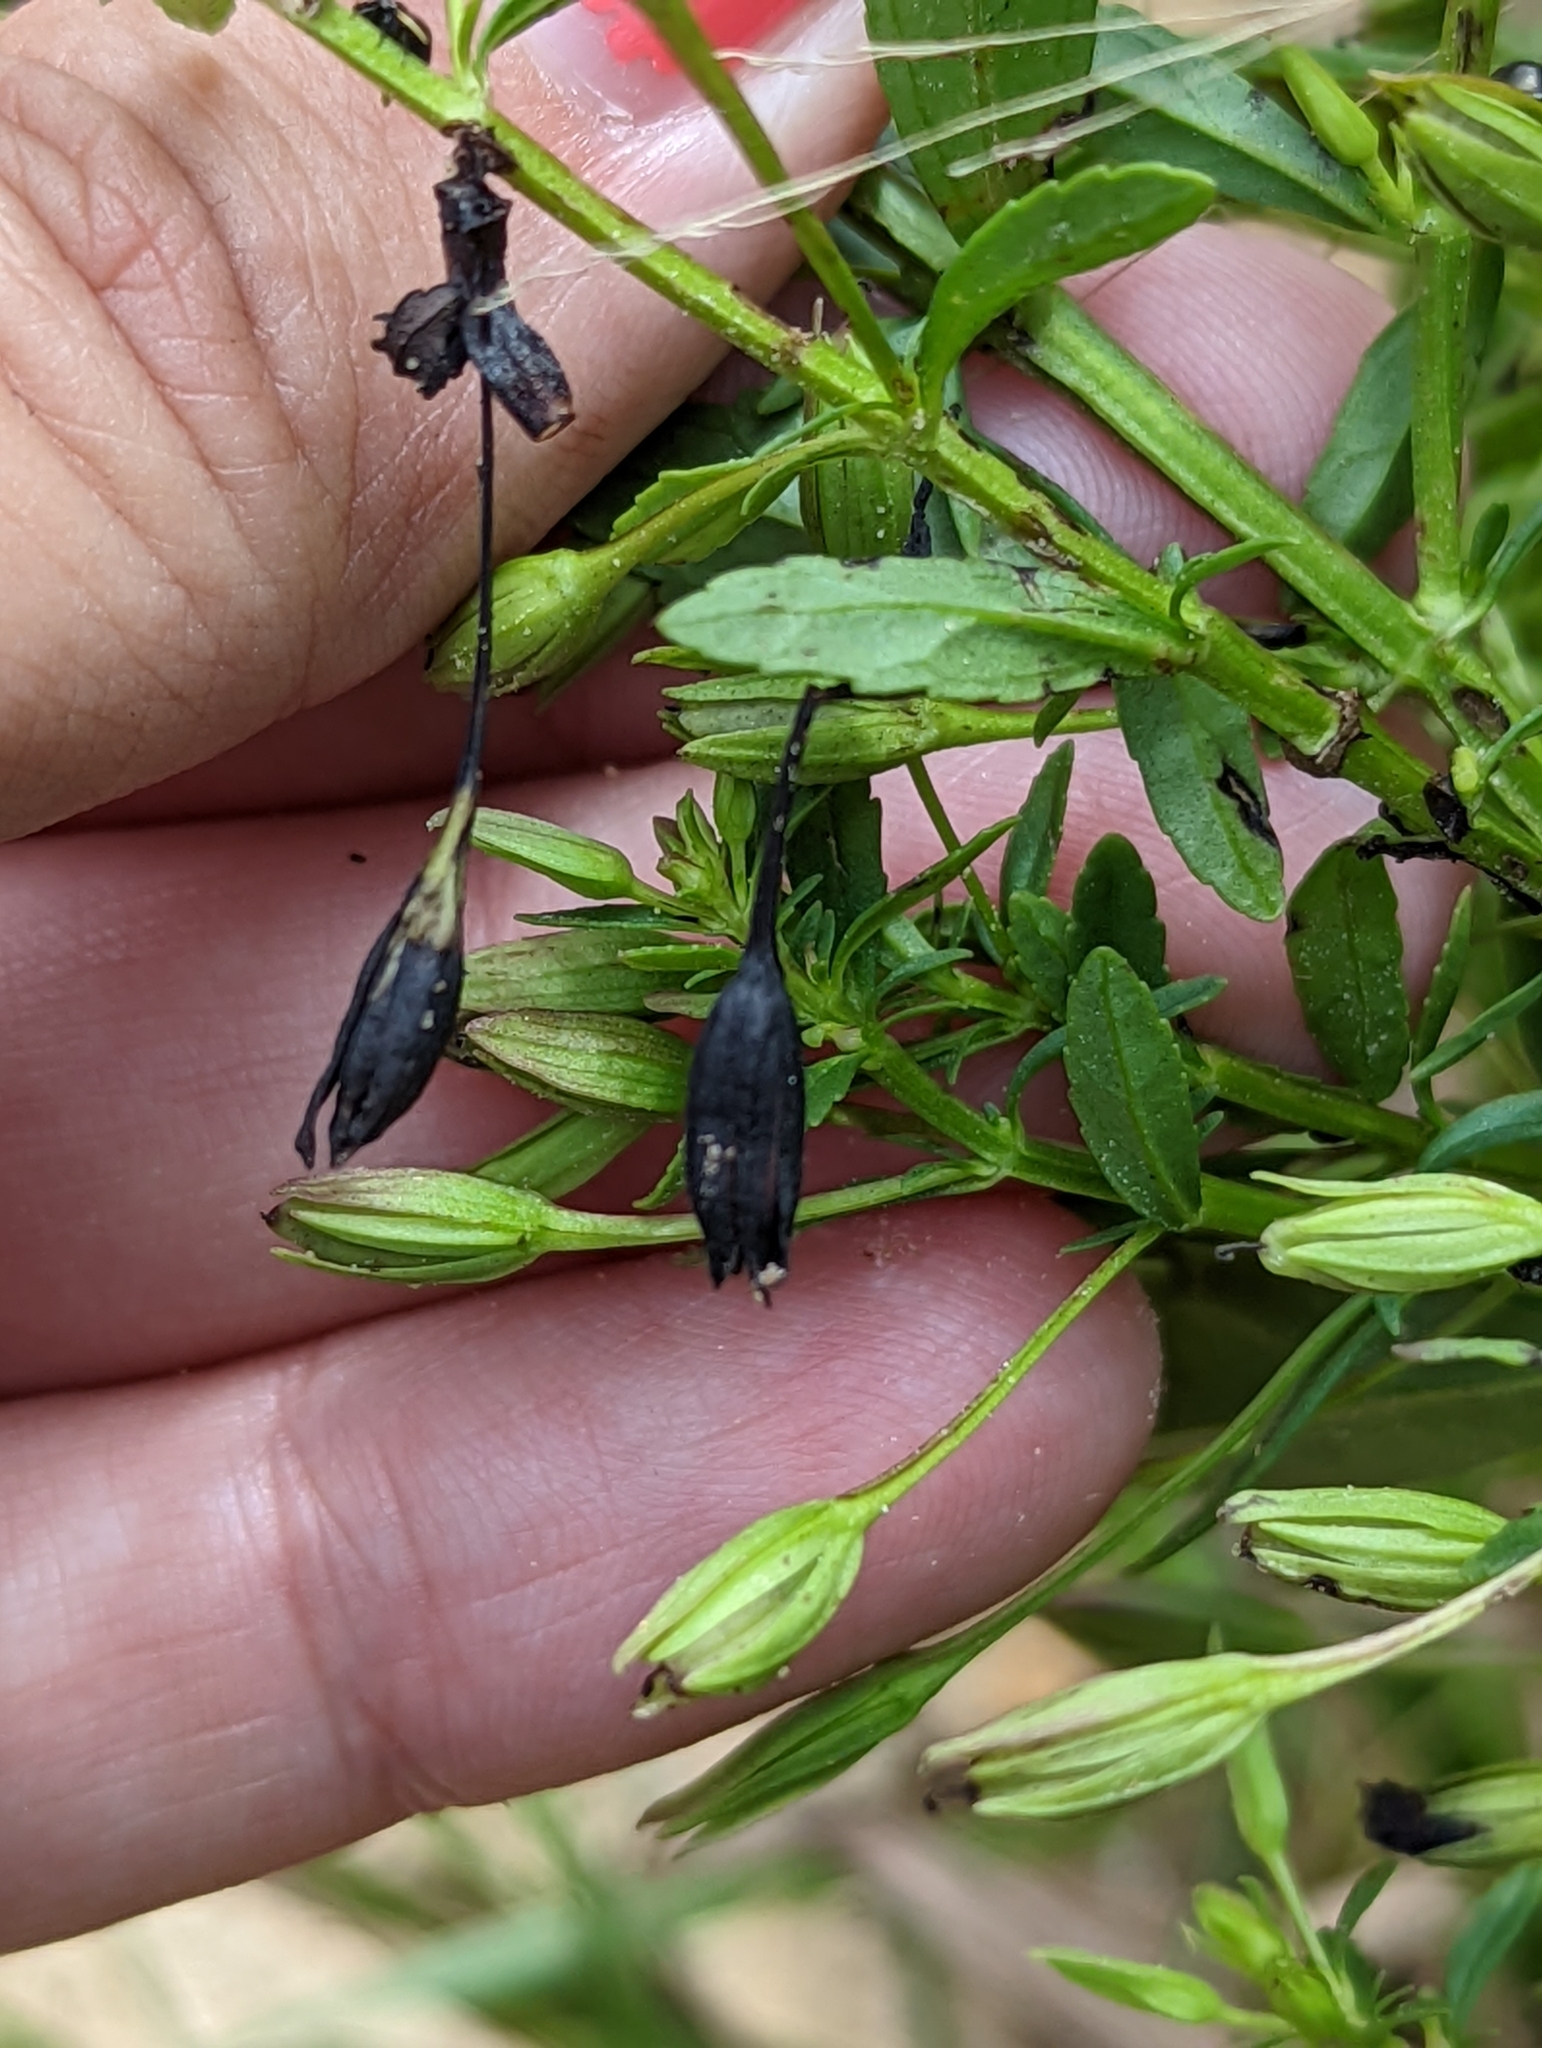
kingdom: Plantae
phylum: Tracheophyta
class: Magnoliopsida
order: Lamiales
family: Plantaginaceae
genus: Mecardonia
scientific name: Mecardonia acuminata
